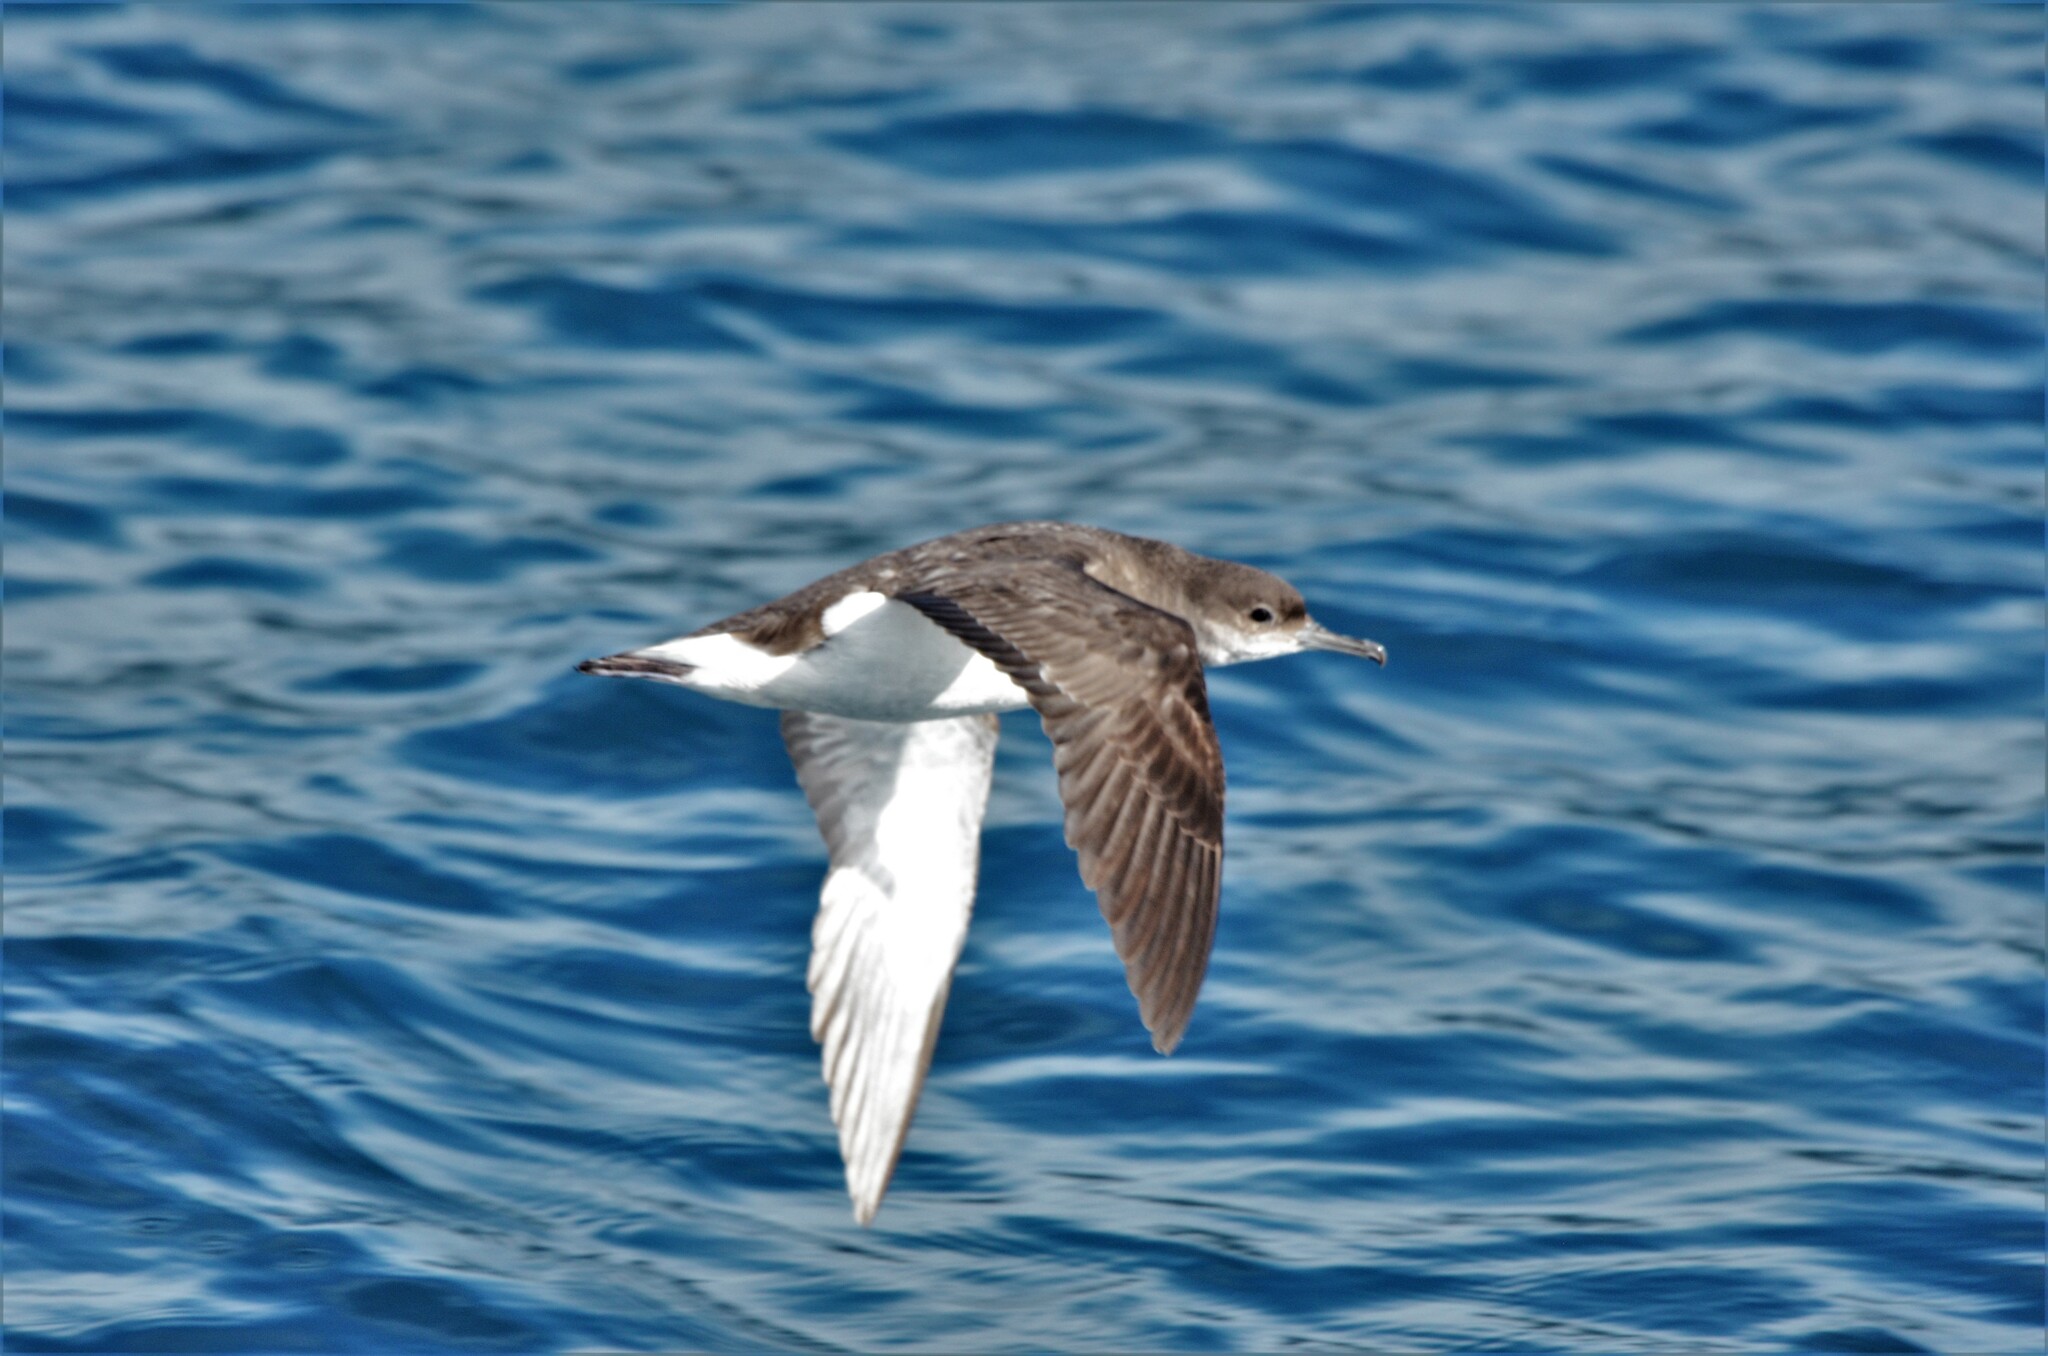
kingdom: Animalia
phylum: Chordata
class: Aves
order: Procellariiformes
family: Procellariidae
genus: Puffinus
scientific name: Puffinus gavia
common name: Fluttering shearwater
